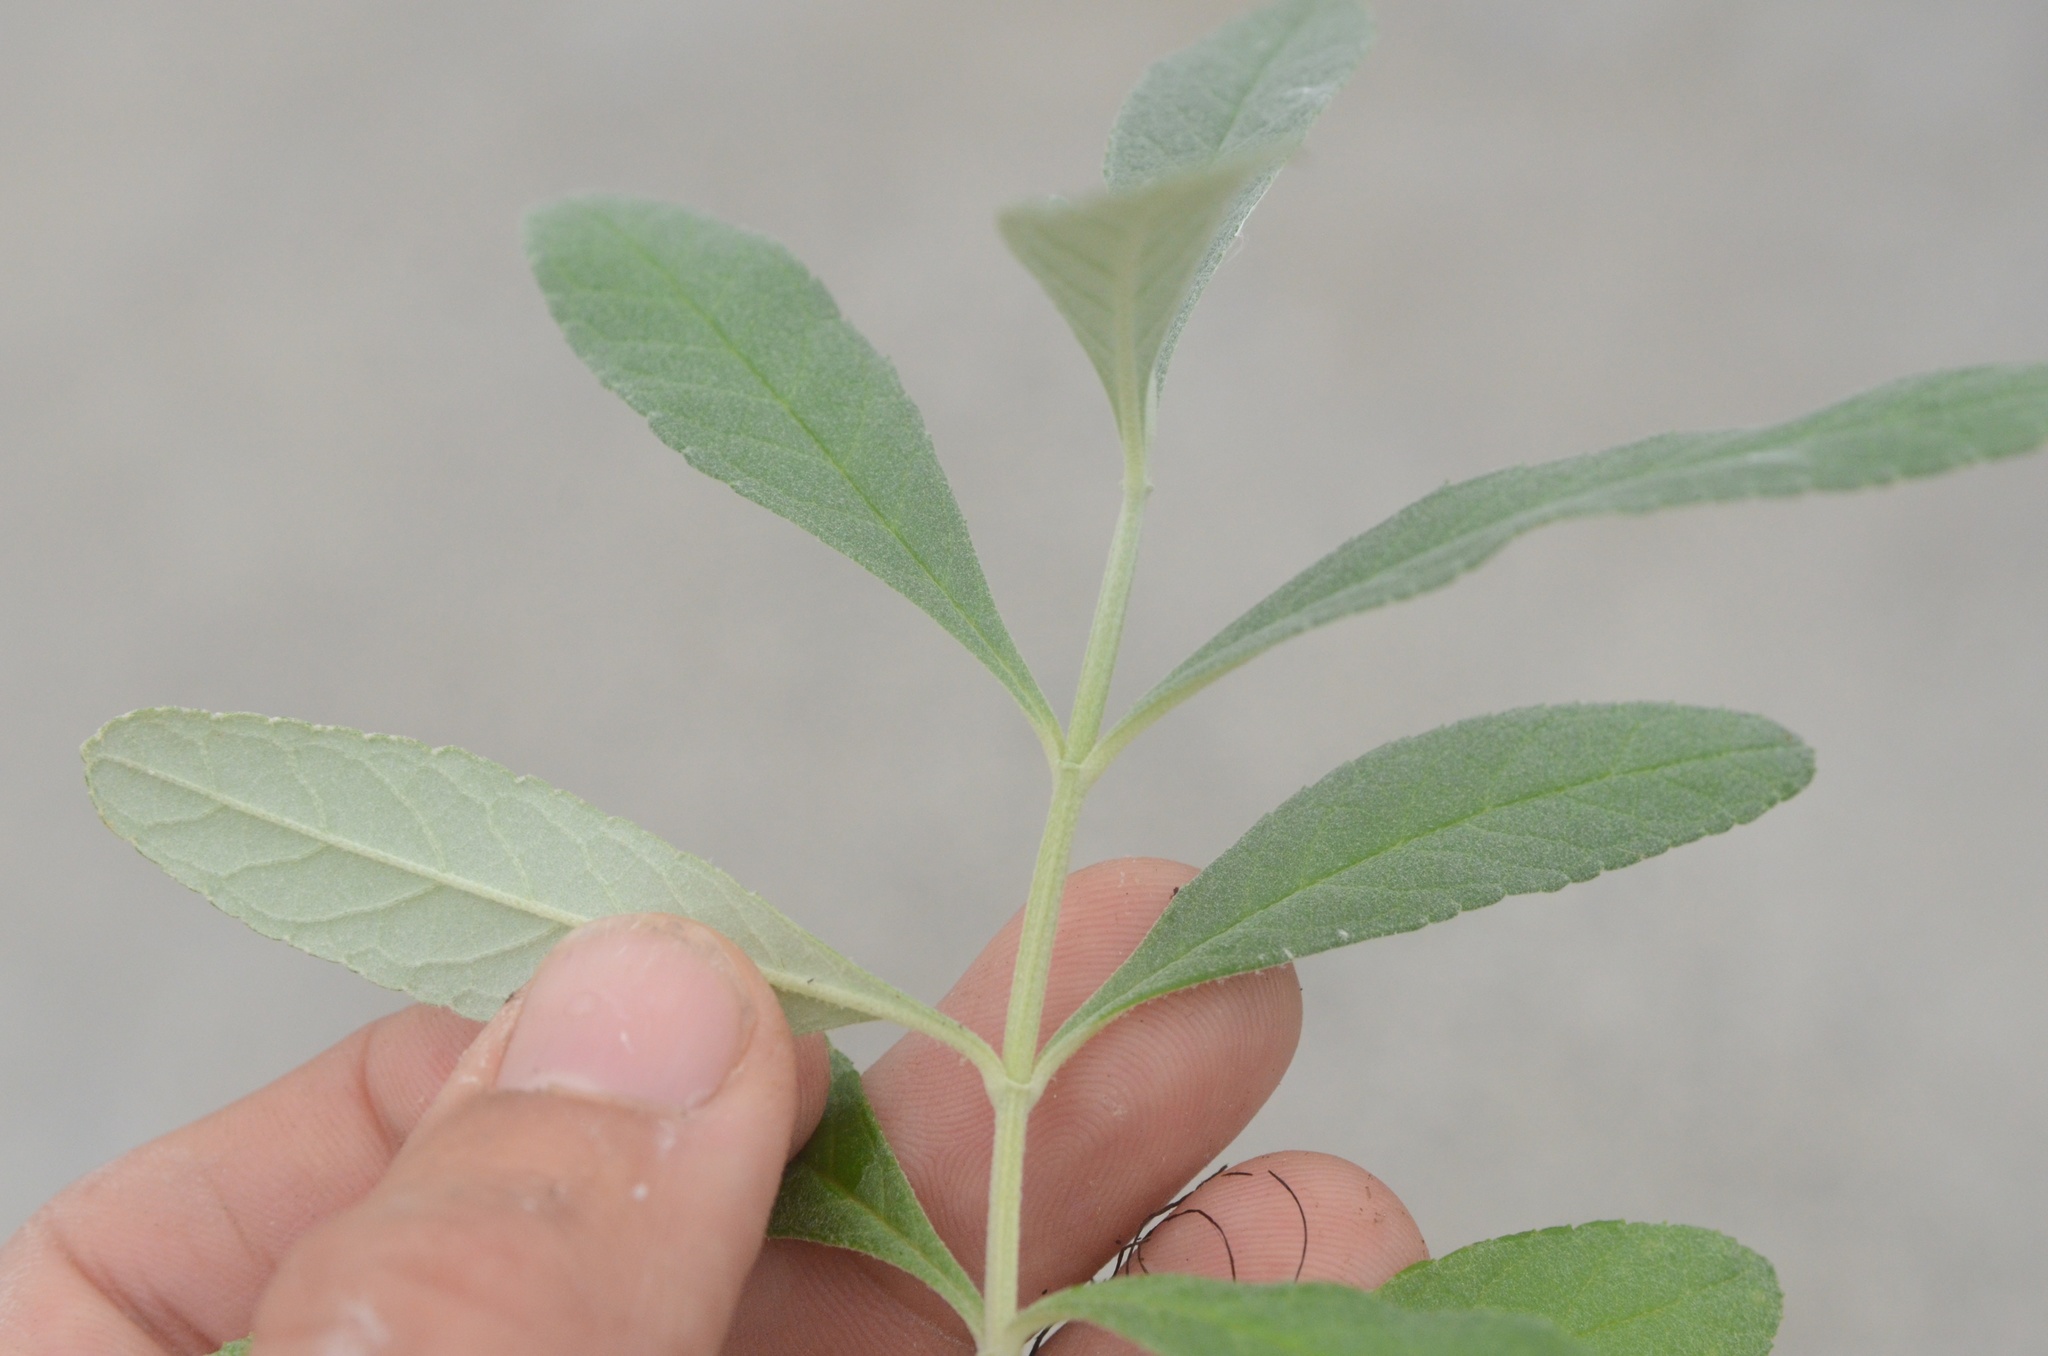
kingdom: Plantae
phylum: Tracheophyta
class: Magnoliopsida
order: Malpighiales
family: Salicaceae
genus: Salix
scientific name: Salix cinerea
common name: Common sallow
